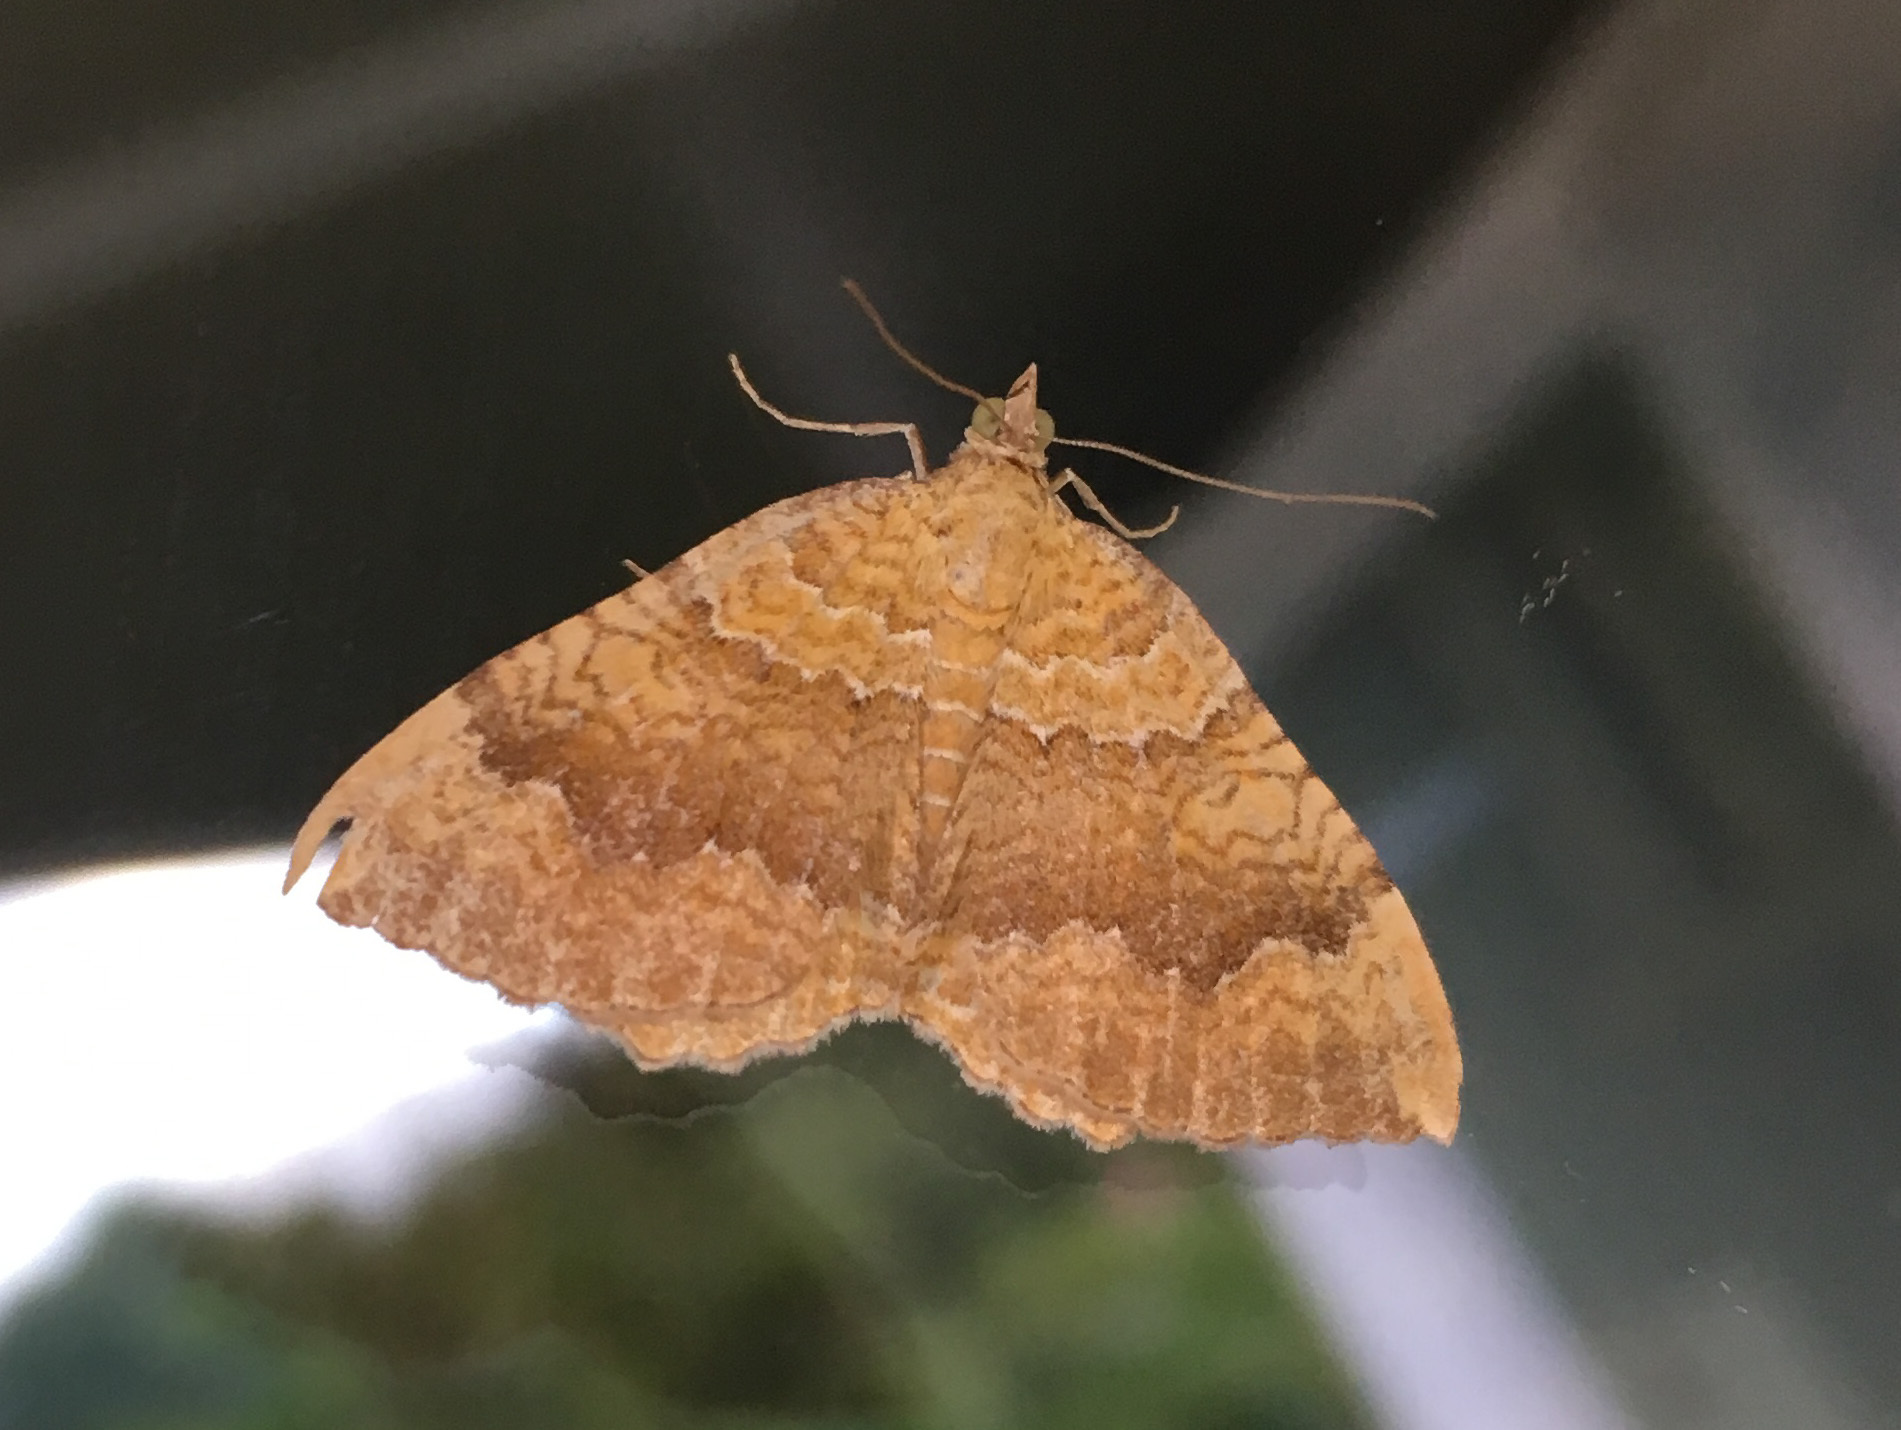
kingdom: Animalia
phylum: Arthropoda
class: Insecta
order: Lepidoptera
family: Geometridae
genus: Camptogramma
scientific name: Camptogramma bilineata
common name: Yellow shell
